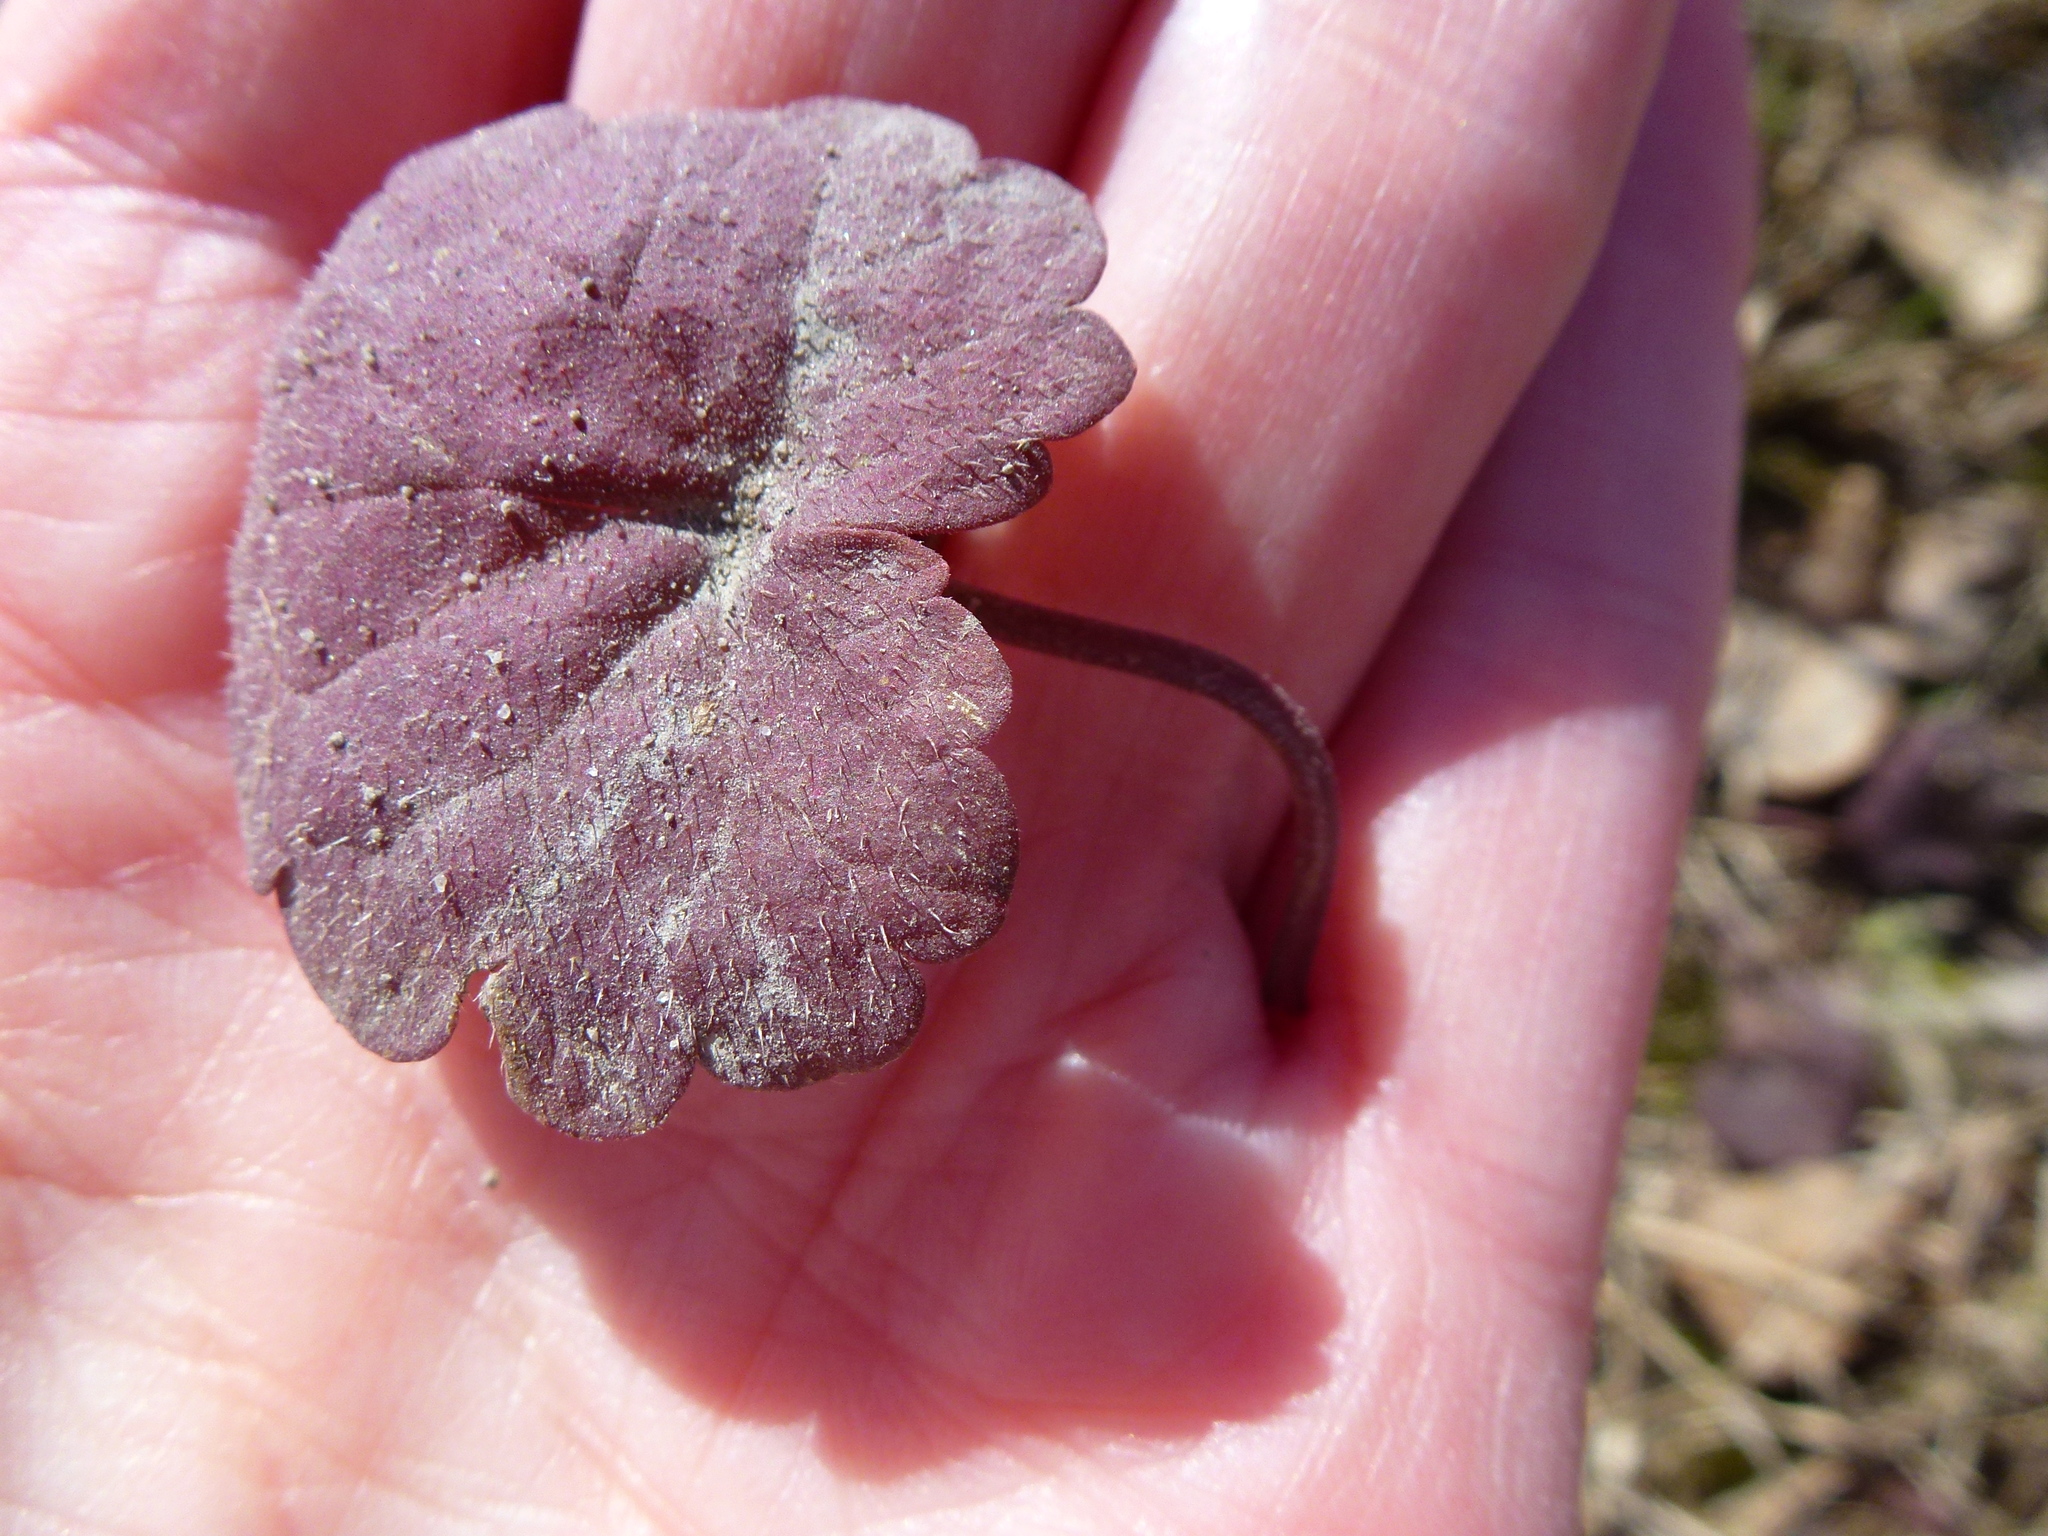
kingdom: Plantae
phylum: Tracheophyta
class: Magnoliopsida
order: Lamiales
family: Lamiaceae
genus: Glechoma
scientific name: Glechoma hederacea
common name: Ground ivy
